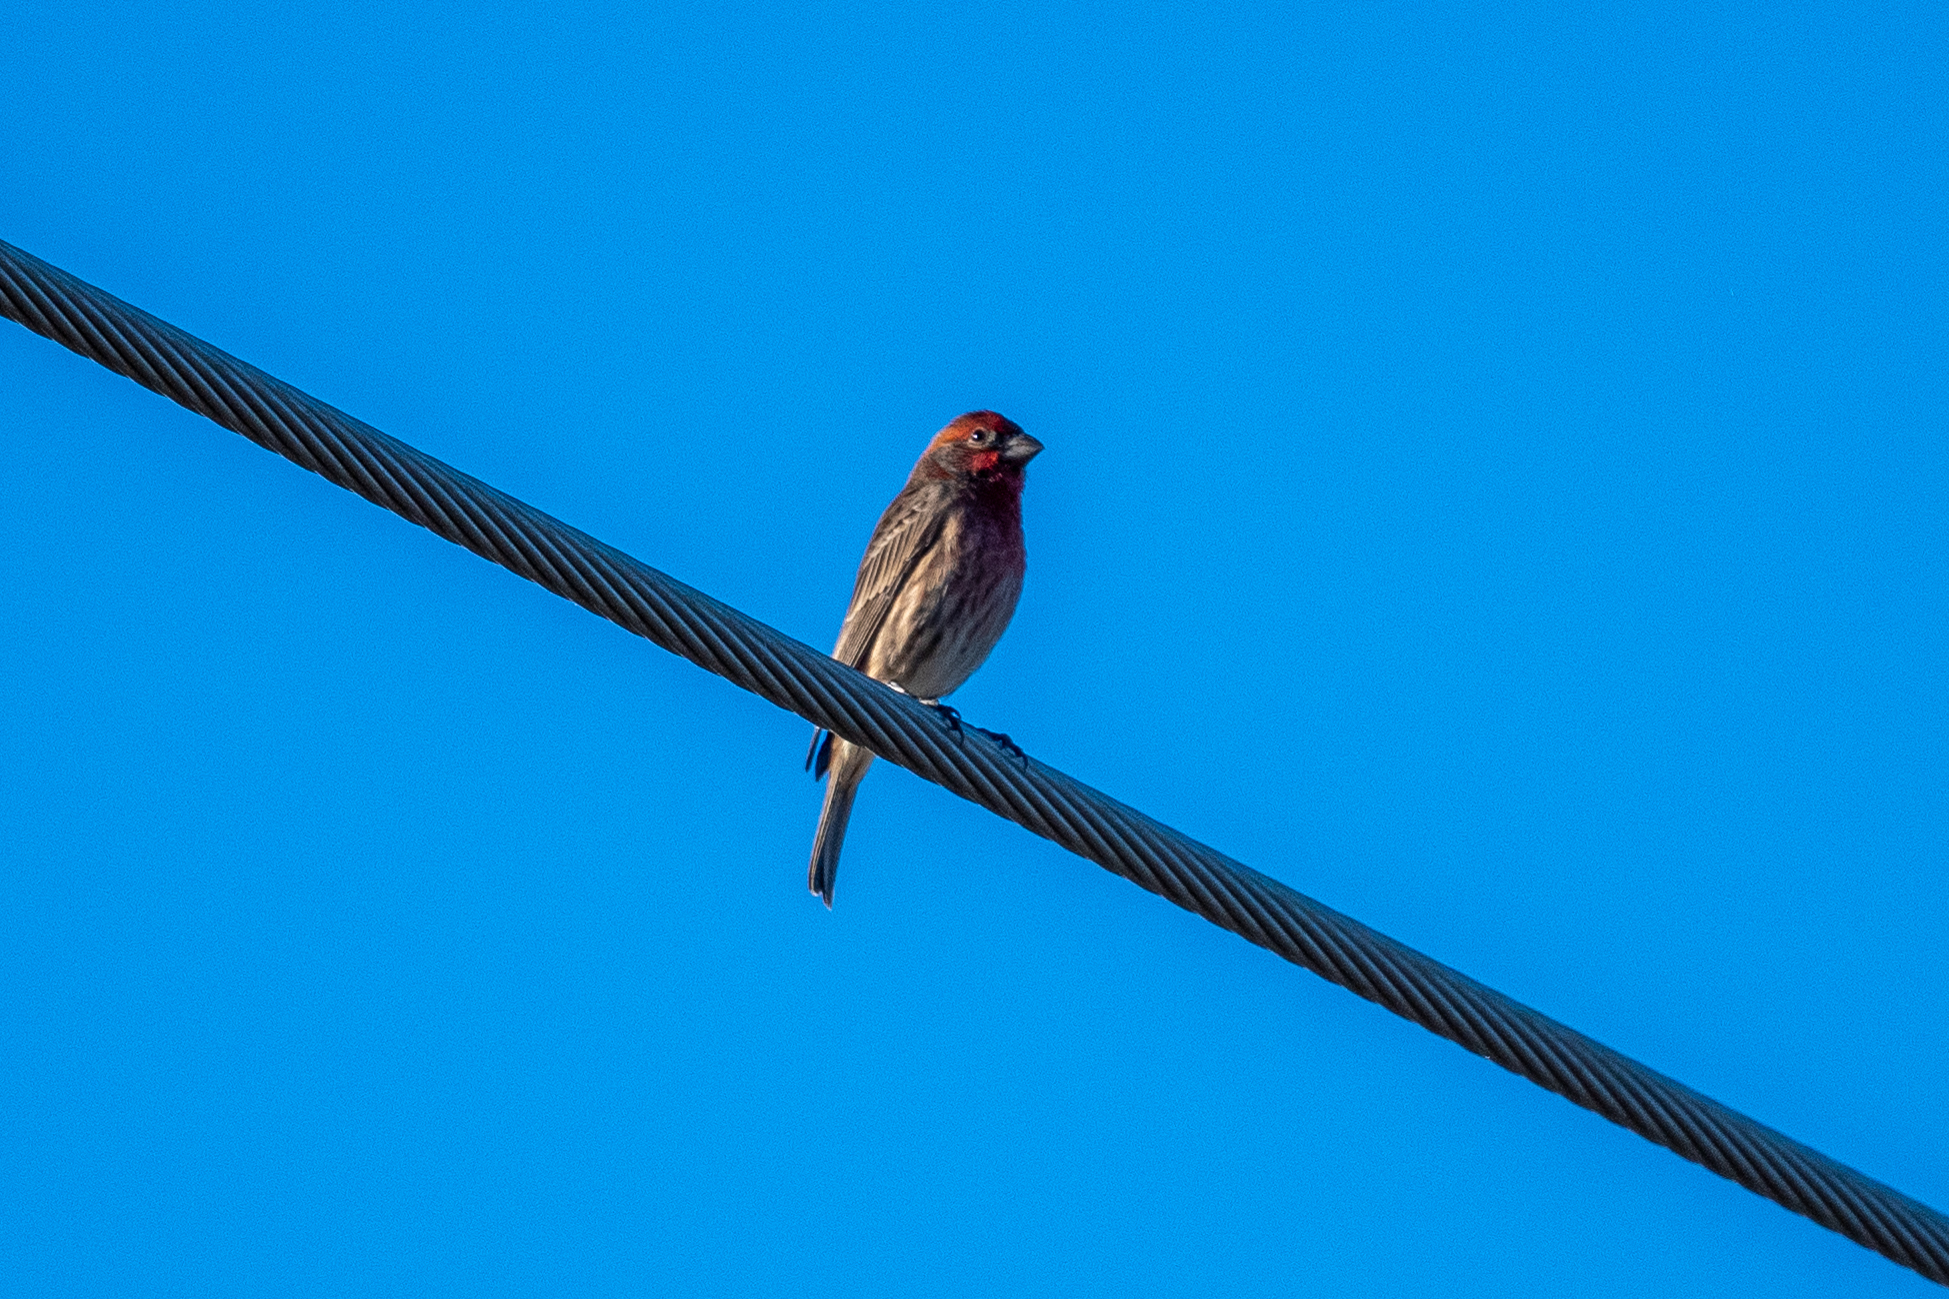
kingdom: Animalia
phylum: Chordata
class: Aves
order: Passeriformes
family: Fringillidae
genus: Haemorhous
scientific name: Haemorhous mexicanus
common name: House finch
